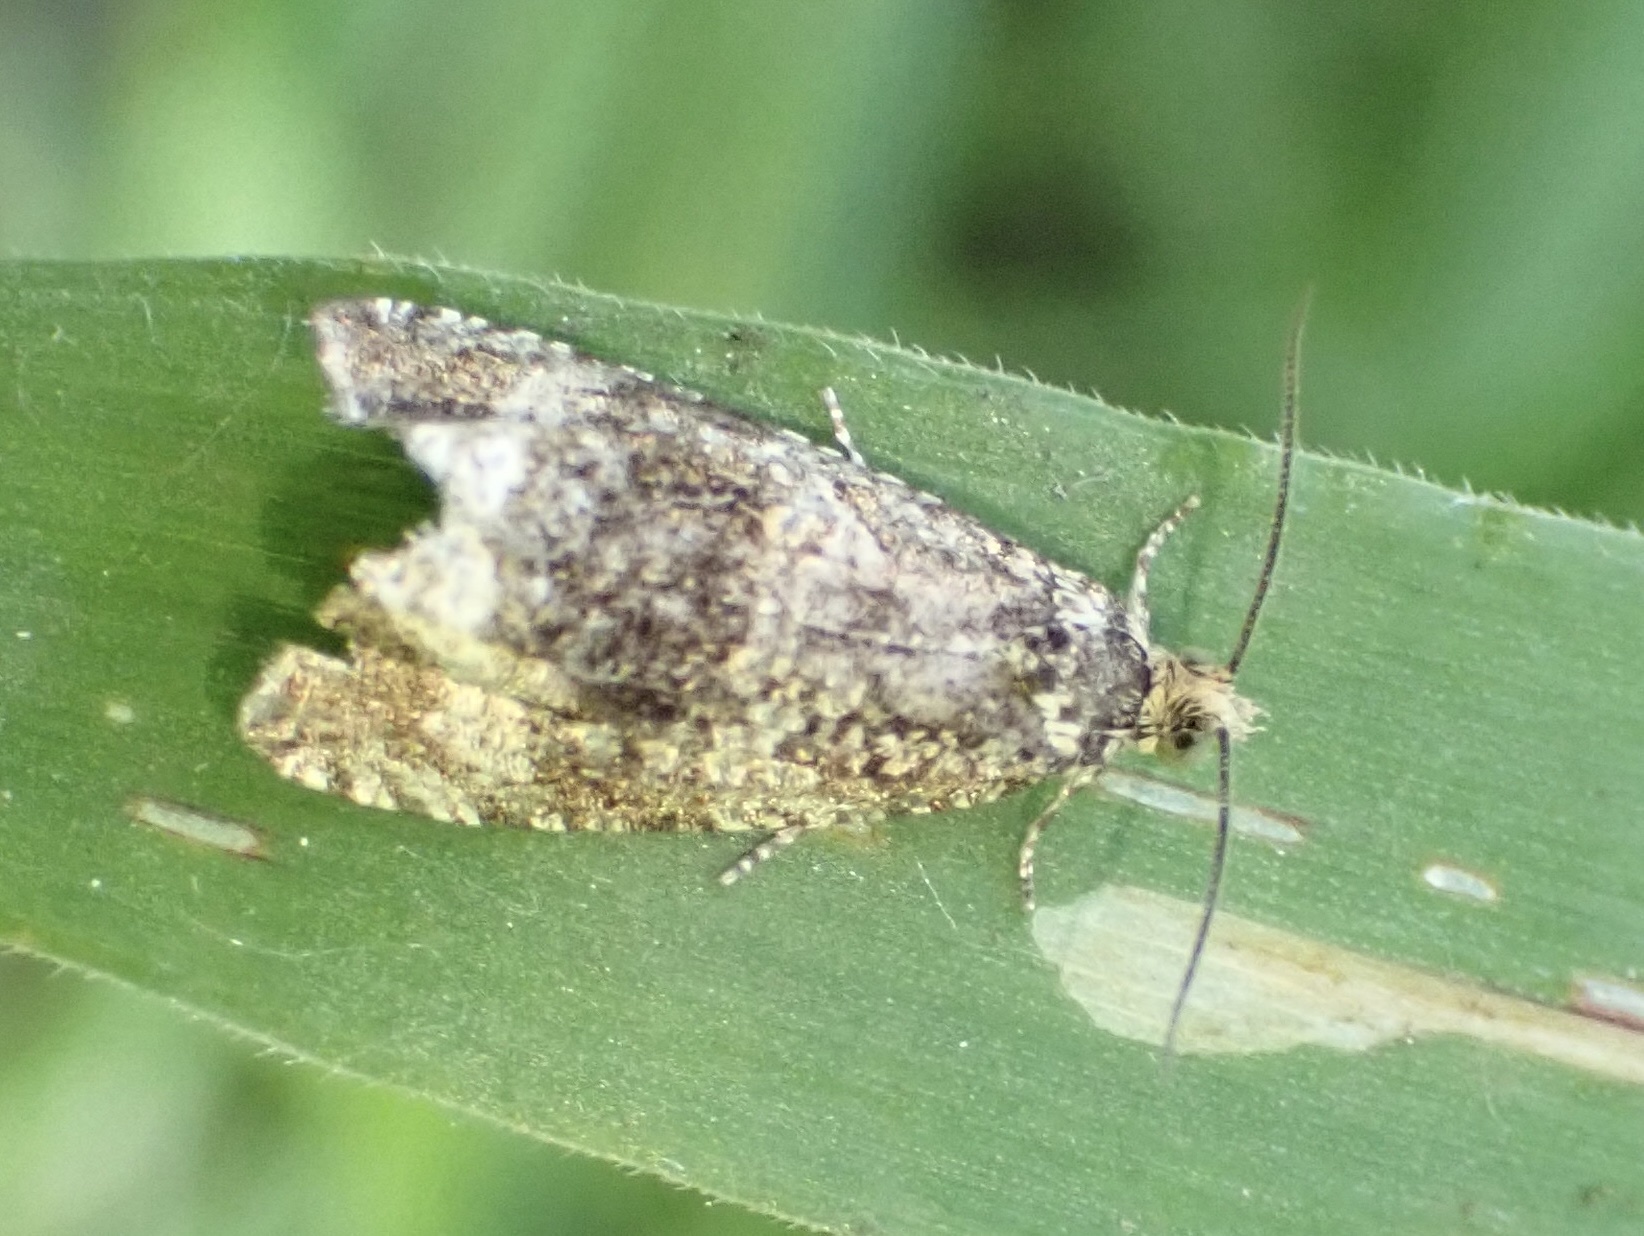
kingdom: Animalia
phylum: Arthropoda
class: Insecta
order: Lepidoptera
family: Tortricidae
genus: Syricoris
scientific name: Syricoris lacunana
